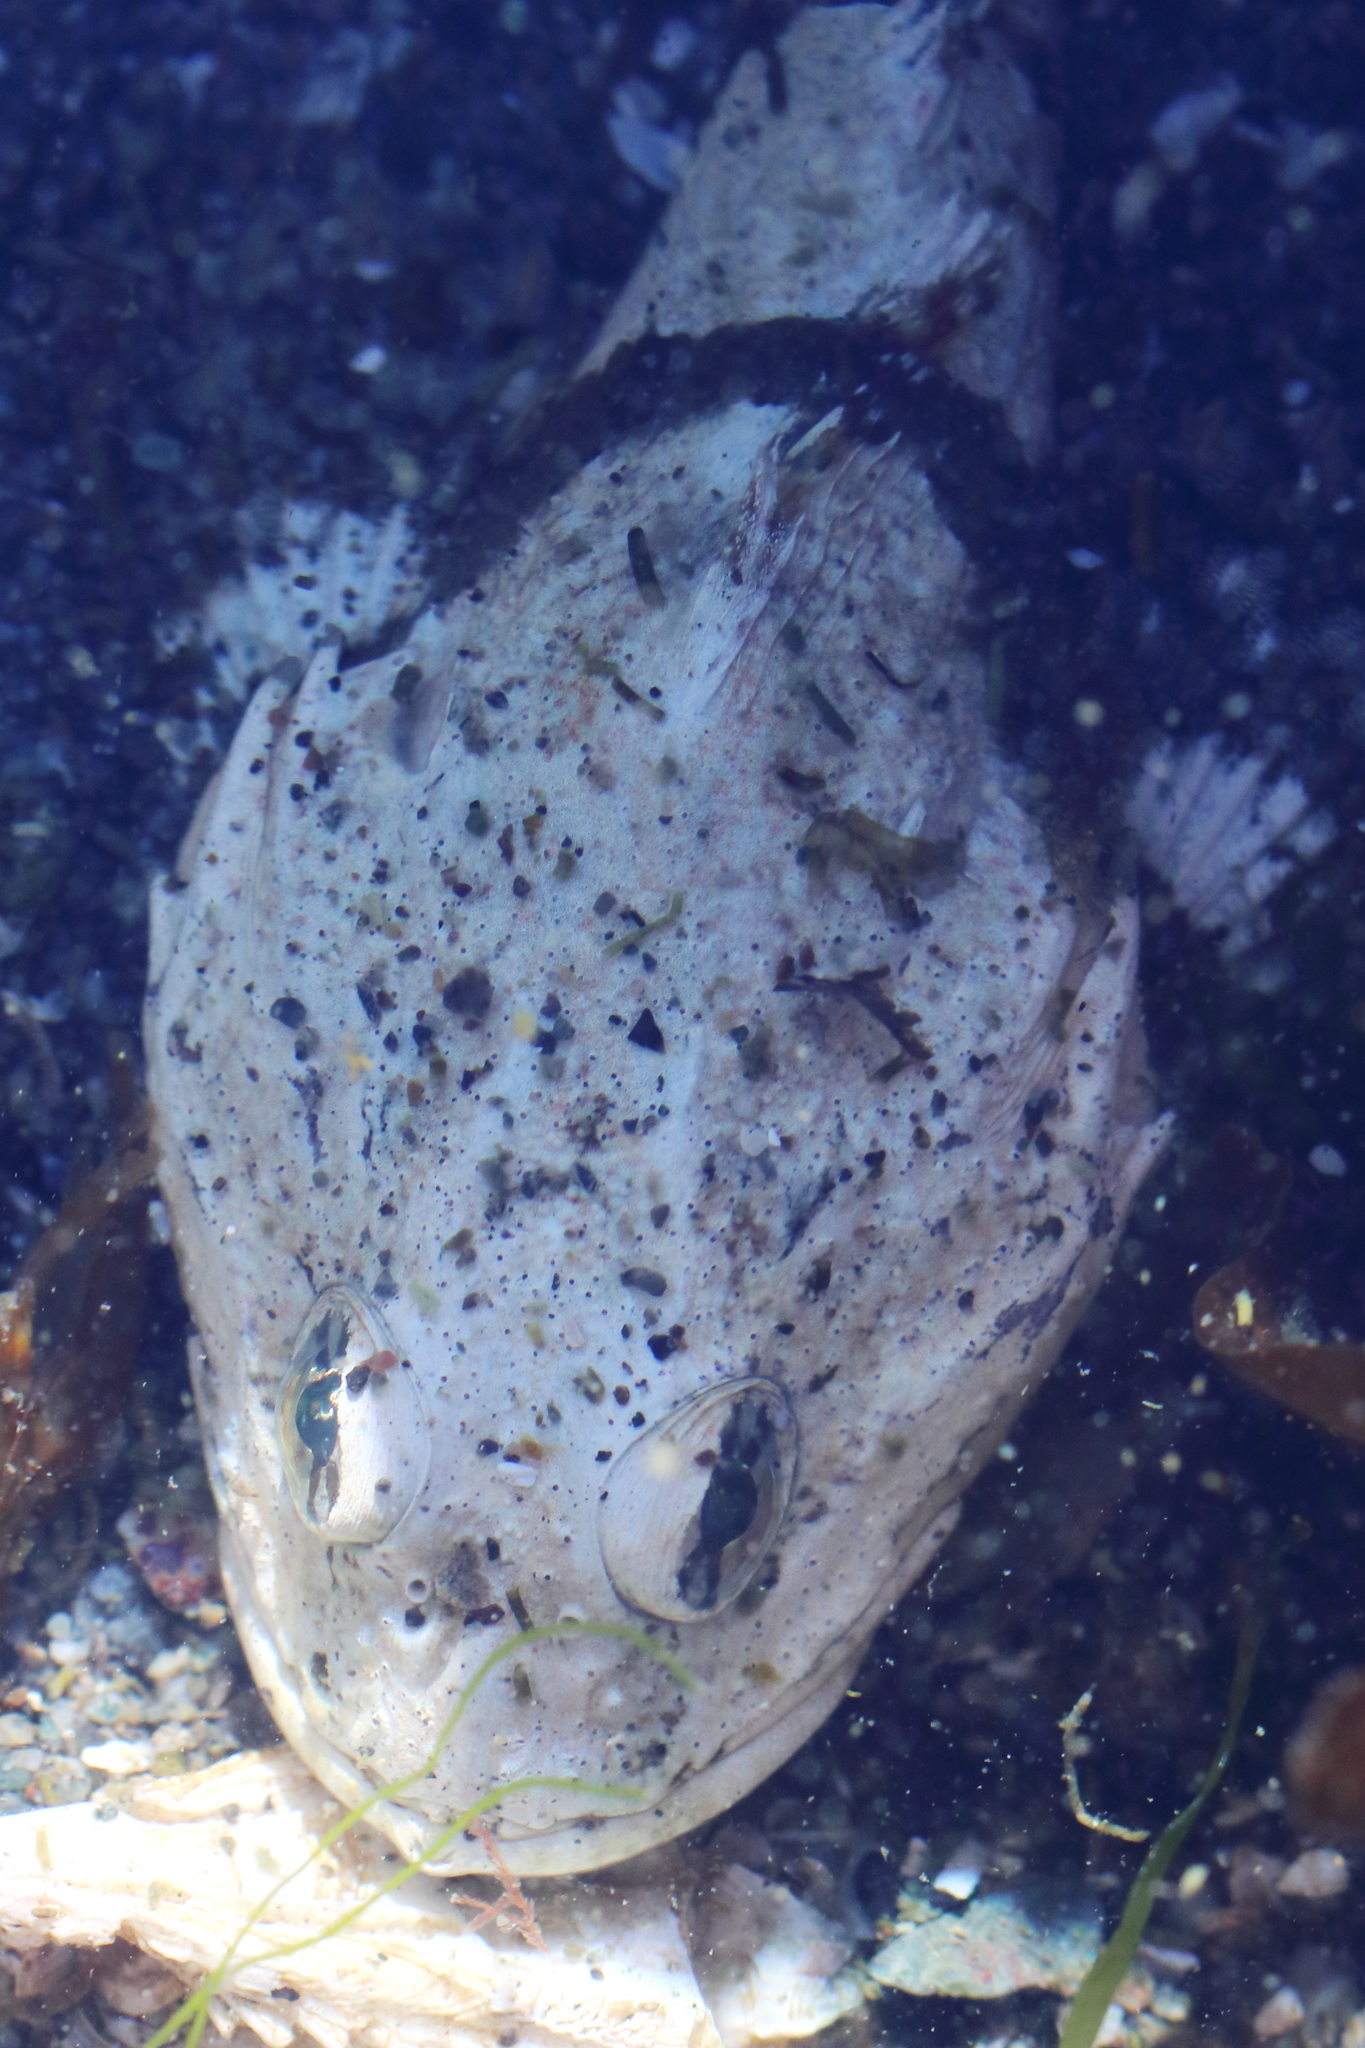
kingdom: Animalia
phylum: Chordata
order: Scorpaeniformes
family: Cottidae
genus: Myoxocephalus
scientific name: Myoxocephalus polyacanthocephalus
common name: Great sculpin
